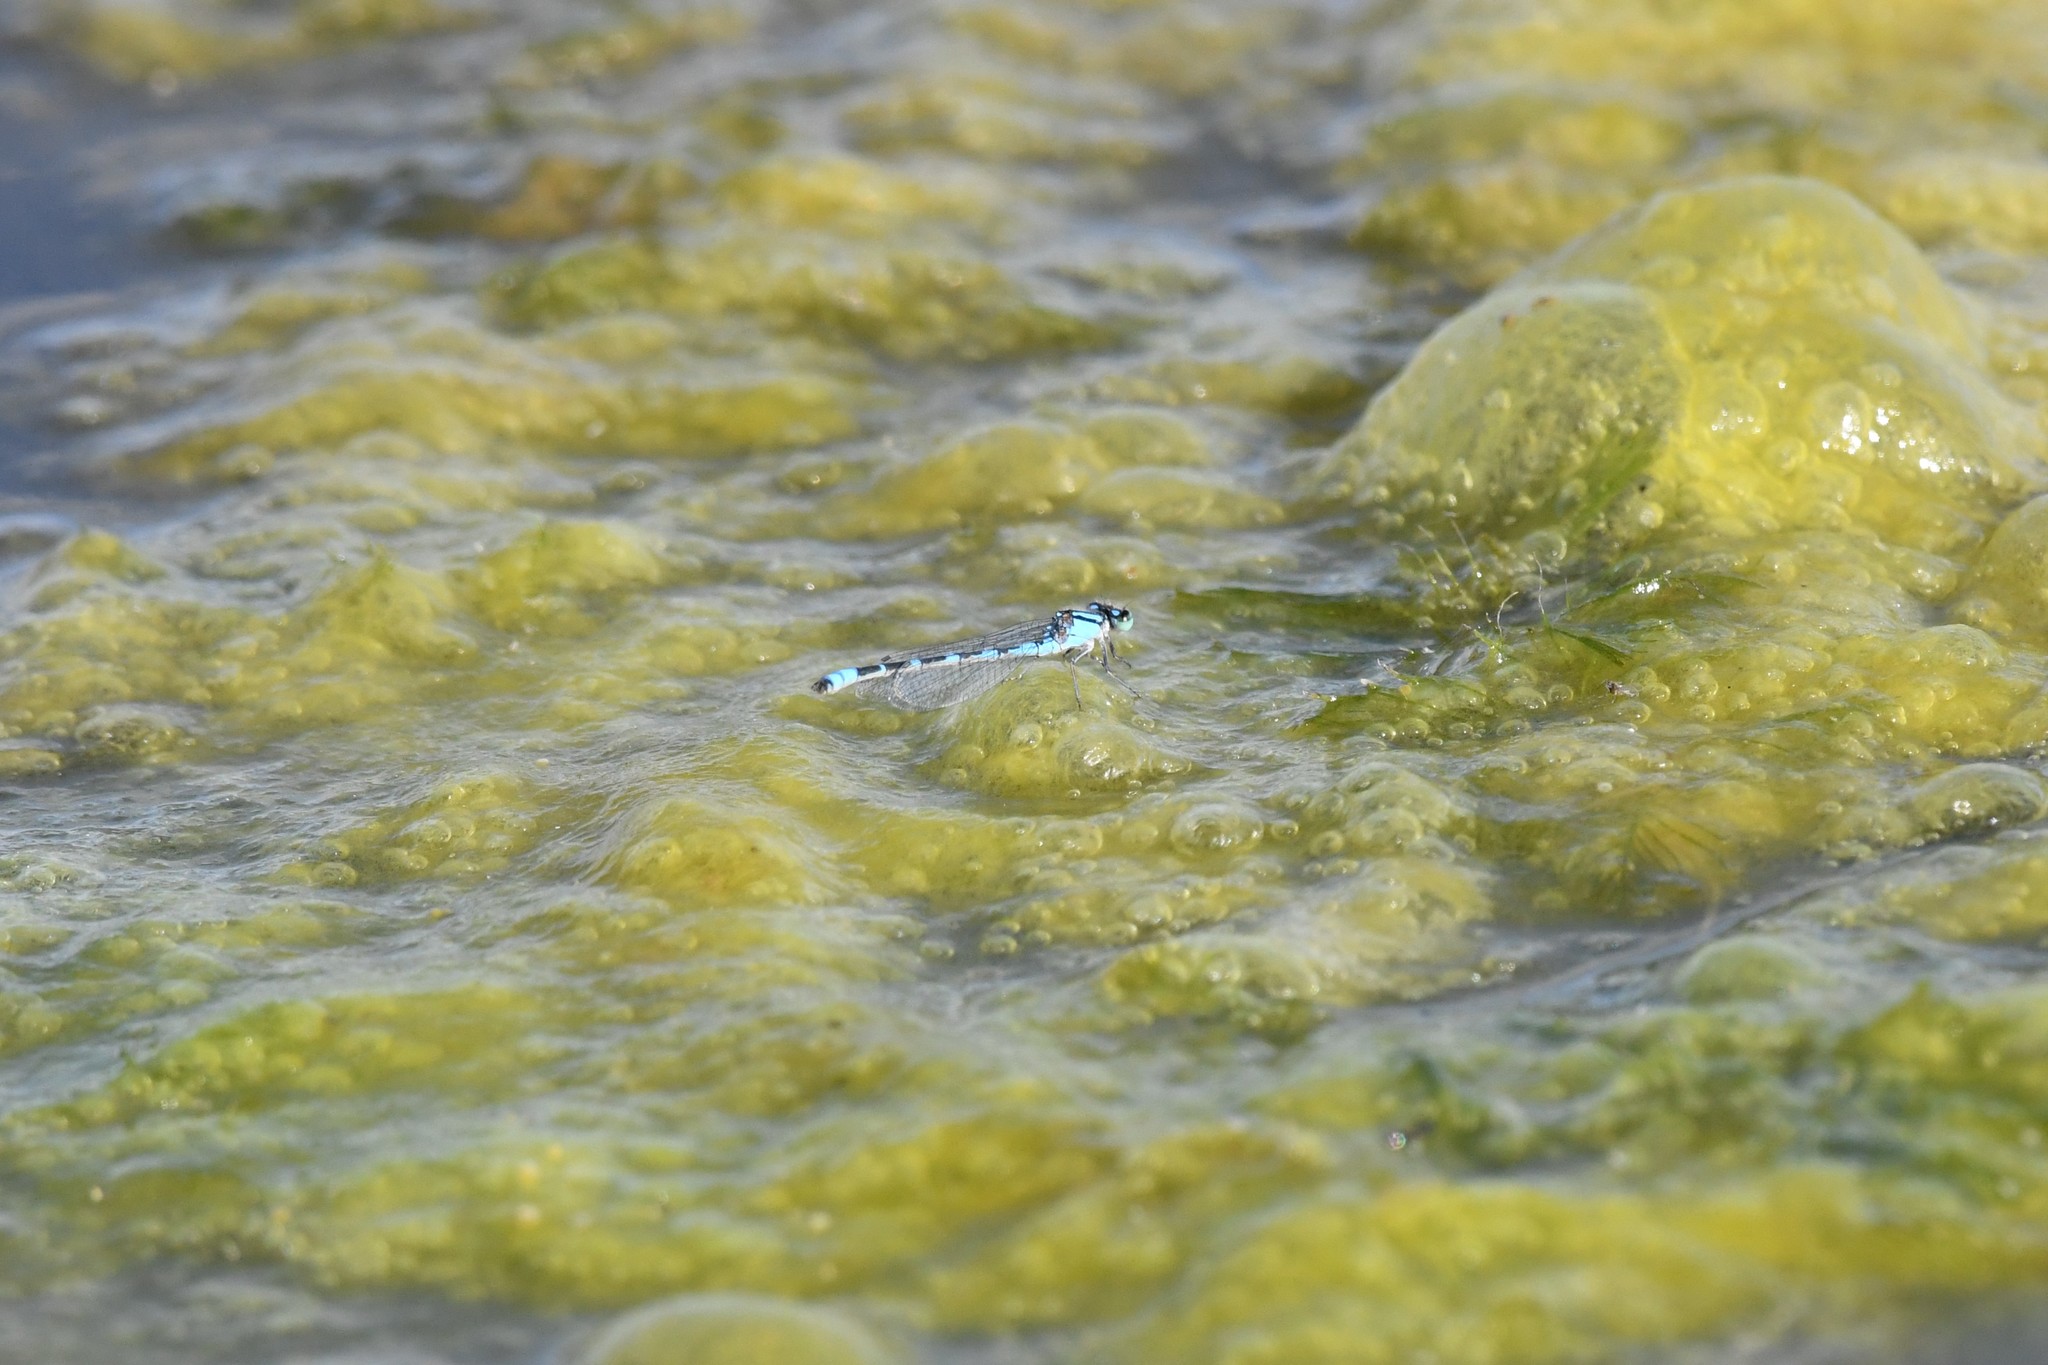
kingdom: Animalia
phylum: Arthropoda
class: Insecta
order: Odonata
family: Coenagrionidae
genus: Enallagma
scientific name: Enallagma carunculatum
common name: Tule bluet
